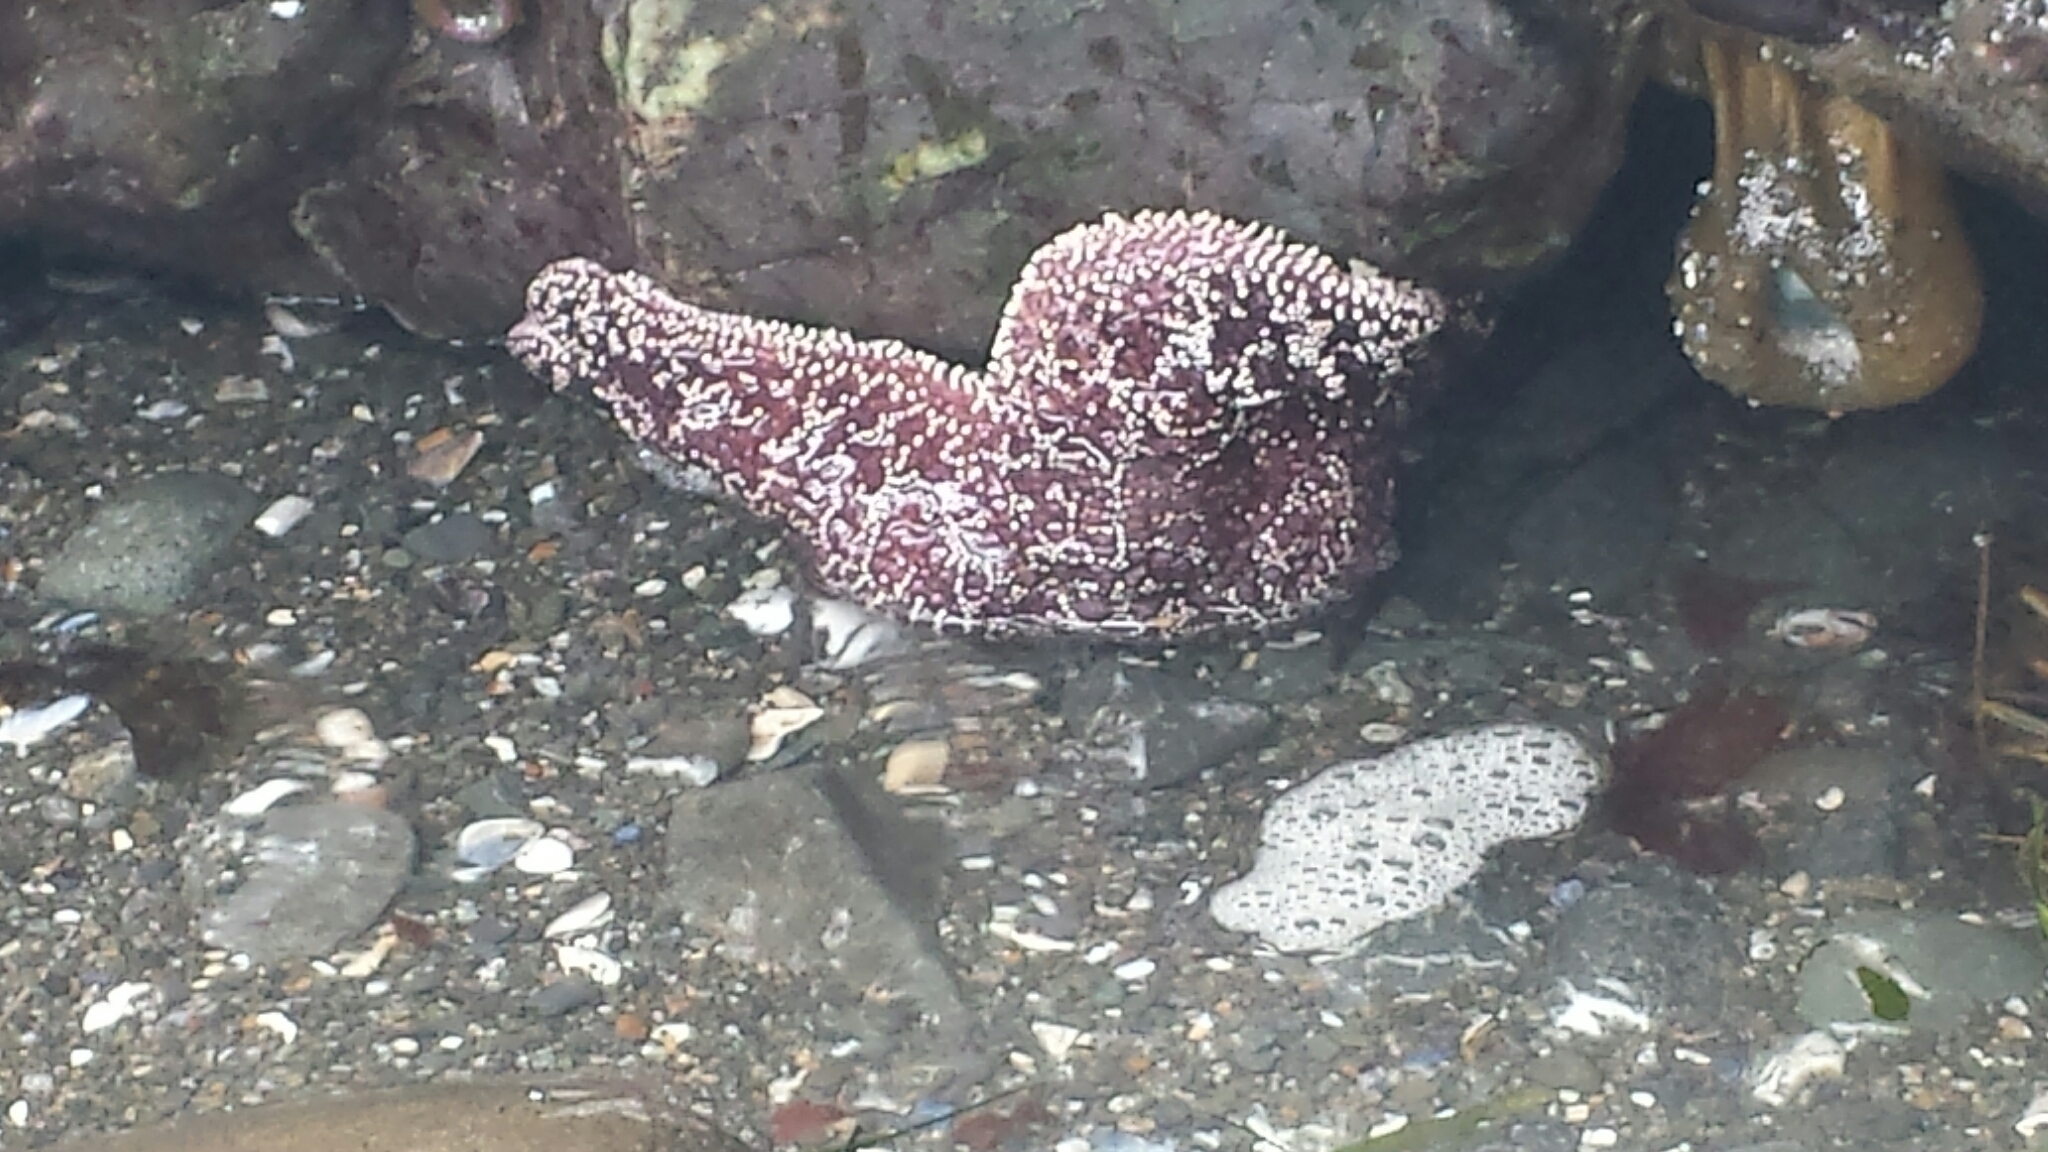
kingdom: Animalia
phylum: Echinodermata
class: Asteroidea
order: Forcipulatida
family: Asteriidae
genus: Pisaster
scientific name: Pisaster ochraceus
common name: Ochre stars
